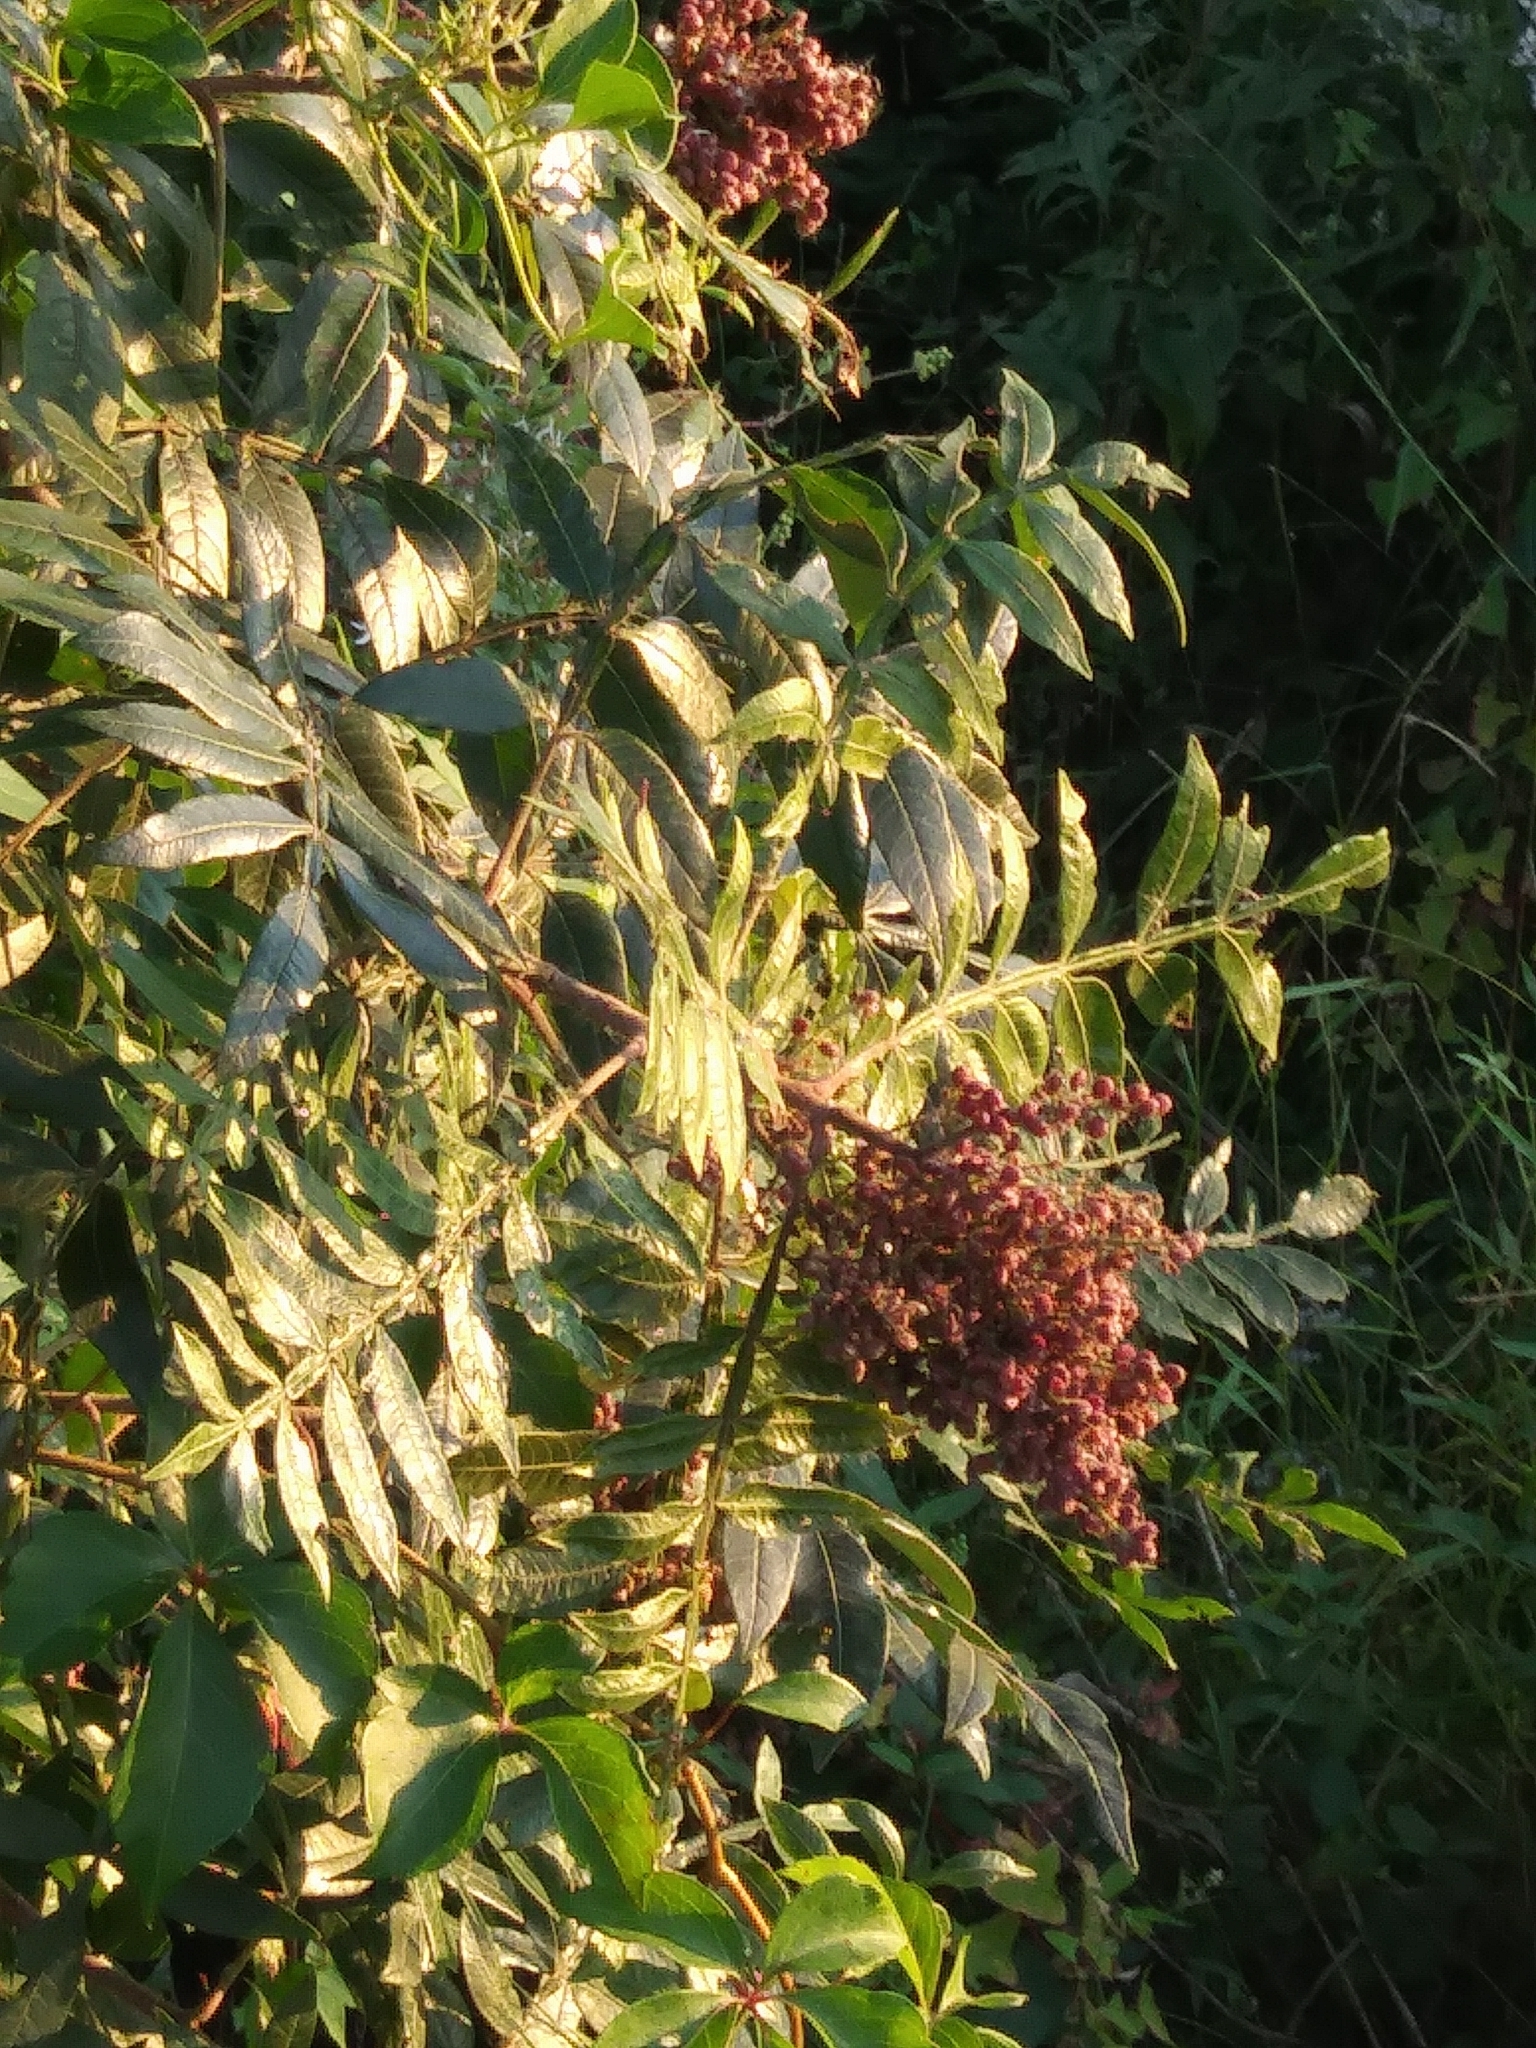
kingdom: Plantae
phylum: Tracheophyta
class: Magnoliopsida
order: Sapindales
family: Anacardiaceae
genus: Rhus
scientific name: Rhus copallina
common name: Shining sumac
